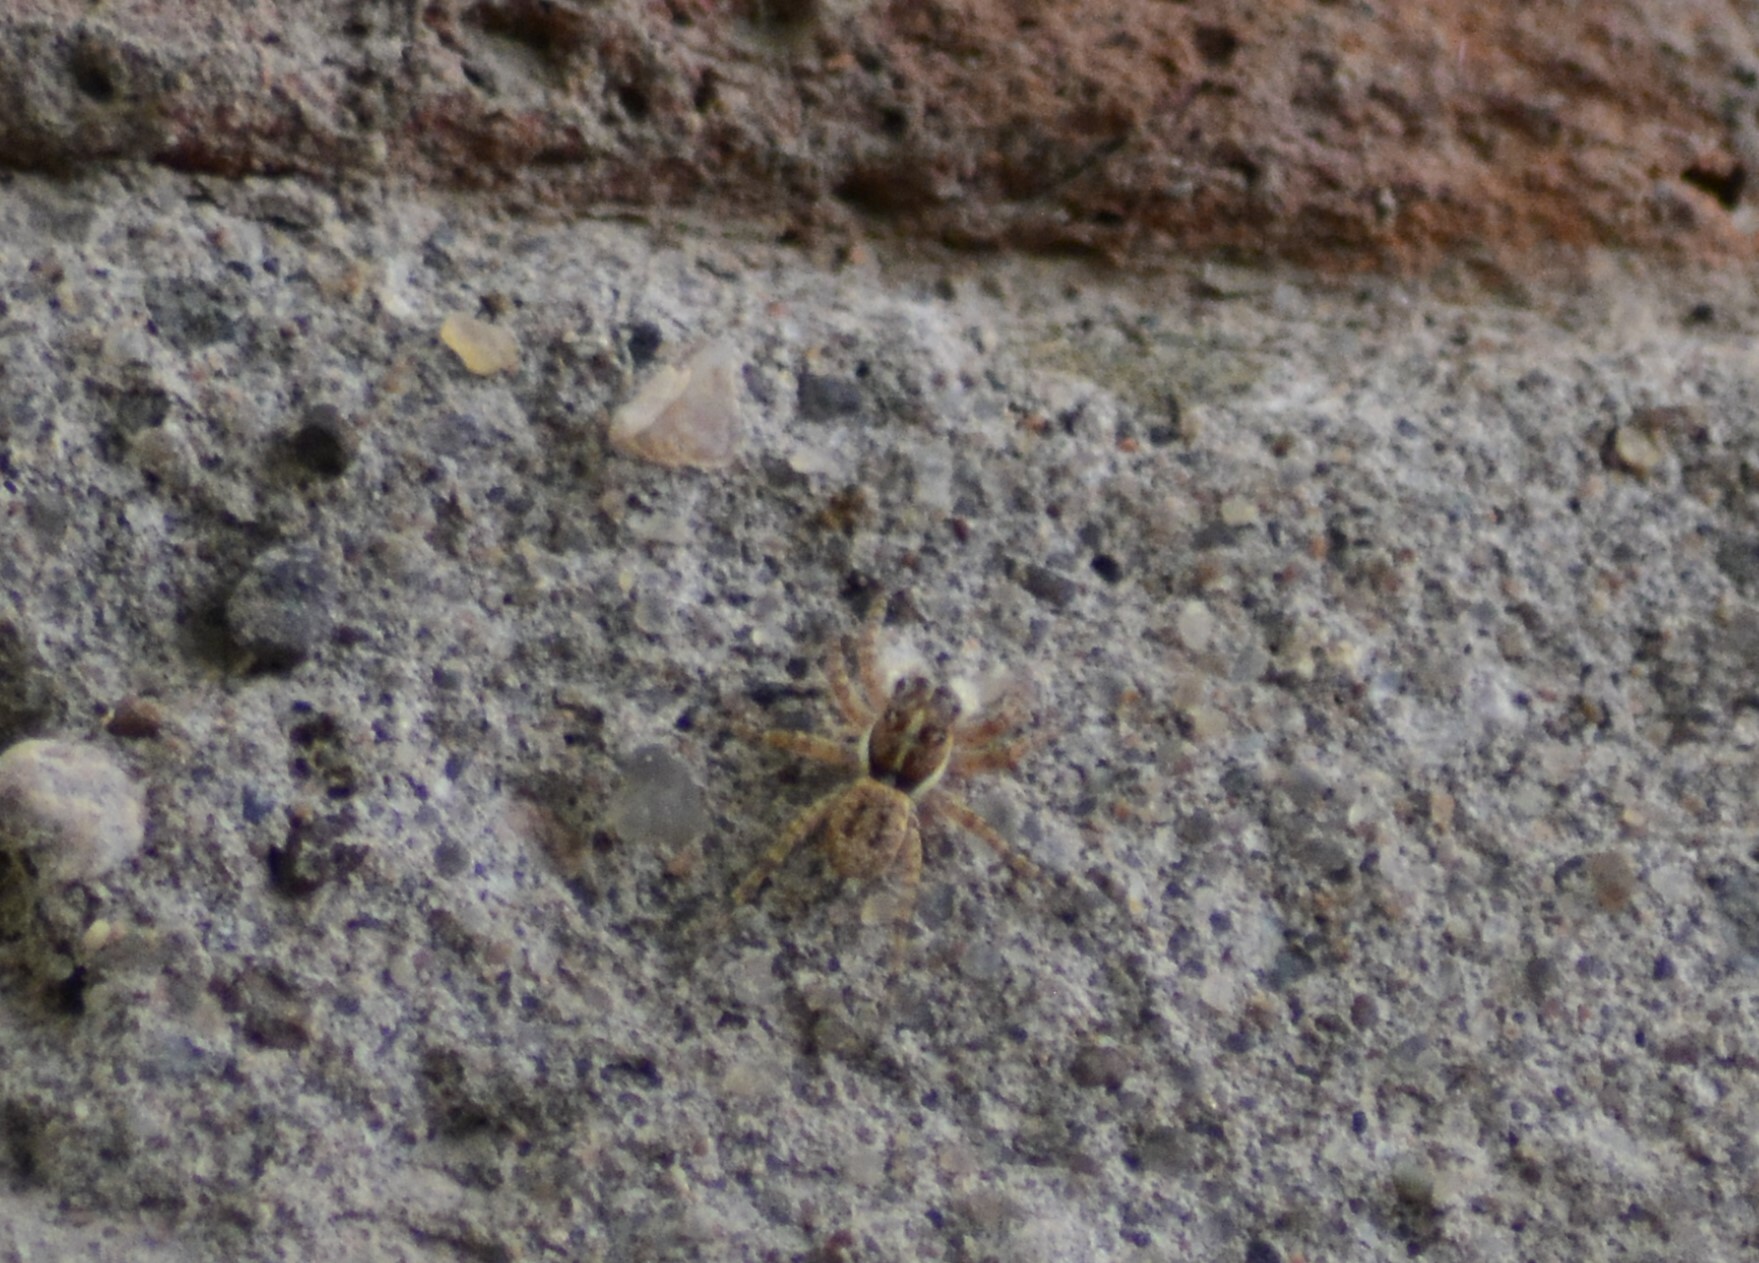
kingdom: Animalia
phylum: Arthropoda
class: Arachnida
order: Araneae
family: Salticidae
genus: Menemerus
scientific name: Menemerus semilimbatus
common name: Jumping spider
